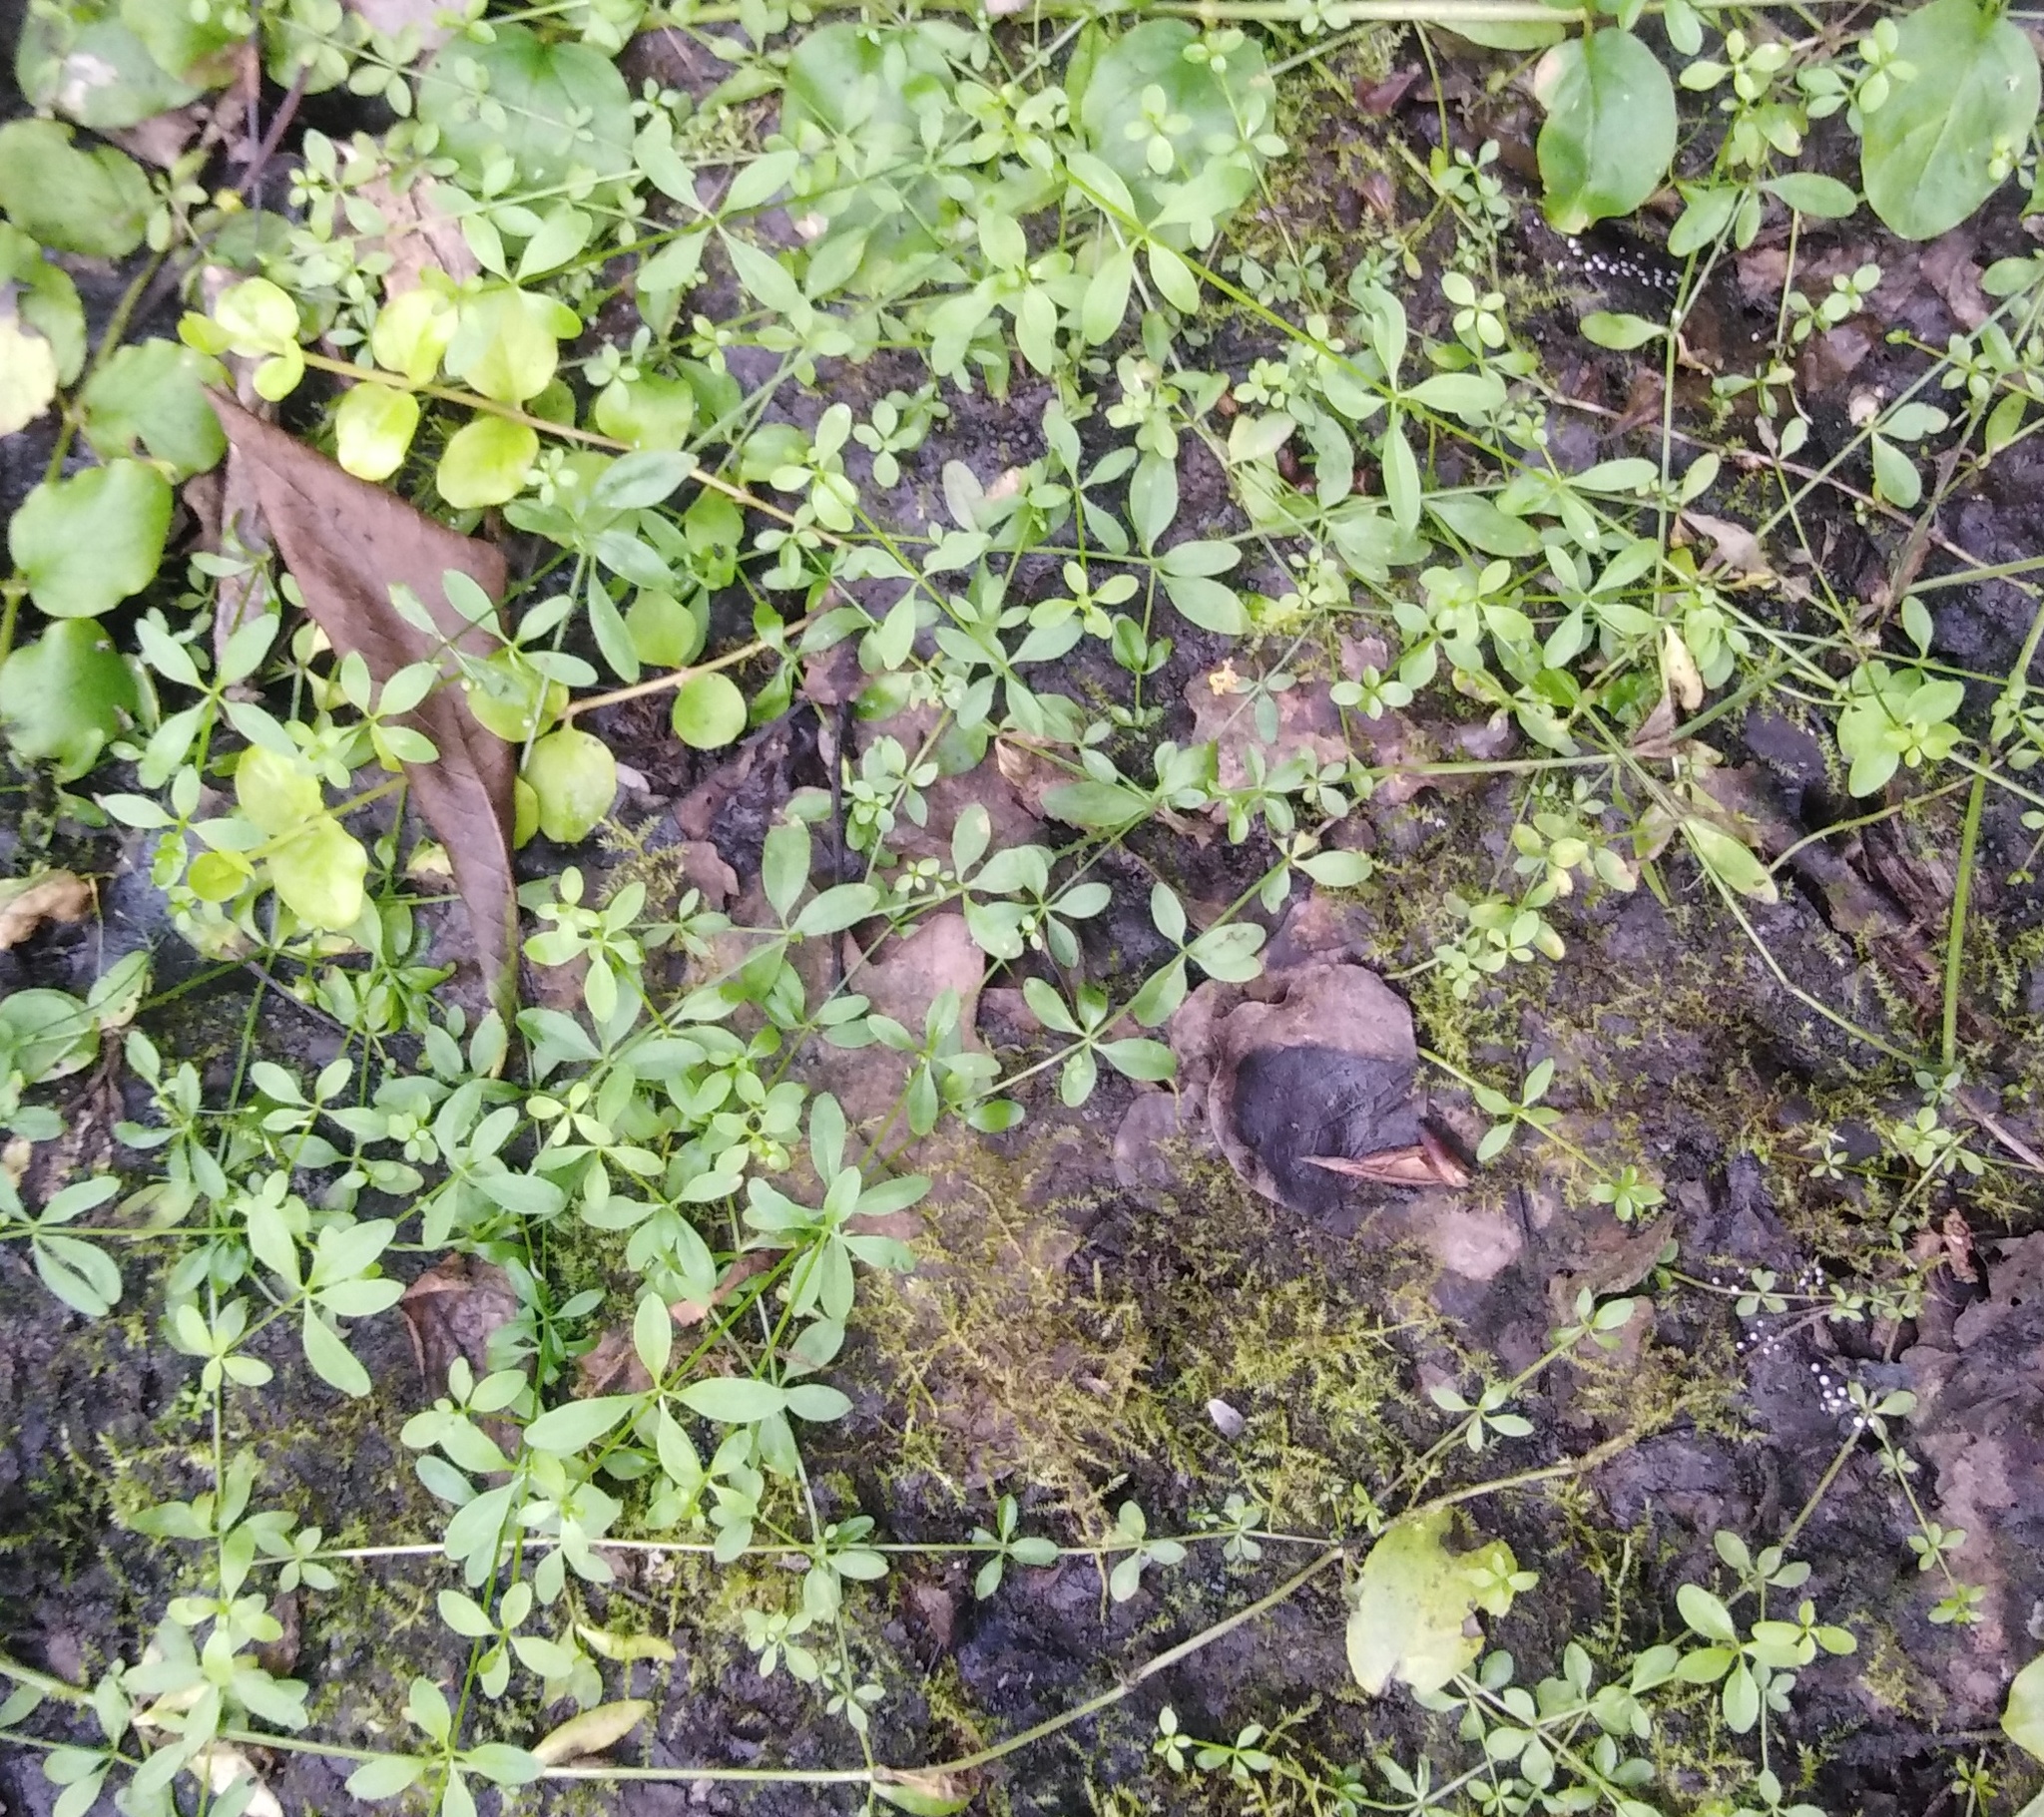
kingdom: Plantae
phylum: Tracheophyta
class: Magnoliopsida
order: Gentianales
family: Rubiaceae
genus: Galium
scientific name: Galium palustre
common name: Common marsh-bedstraw
